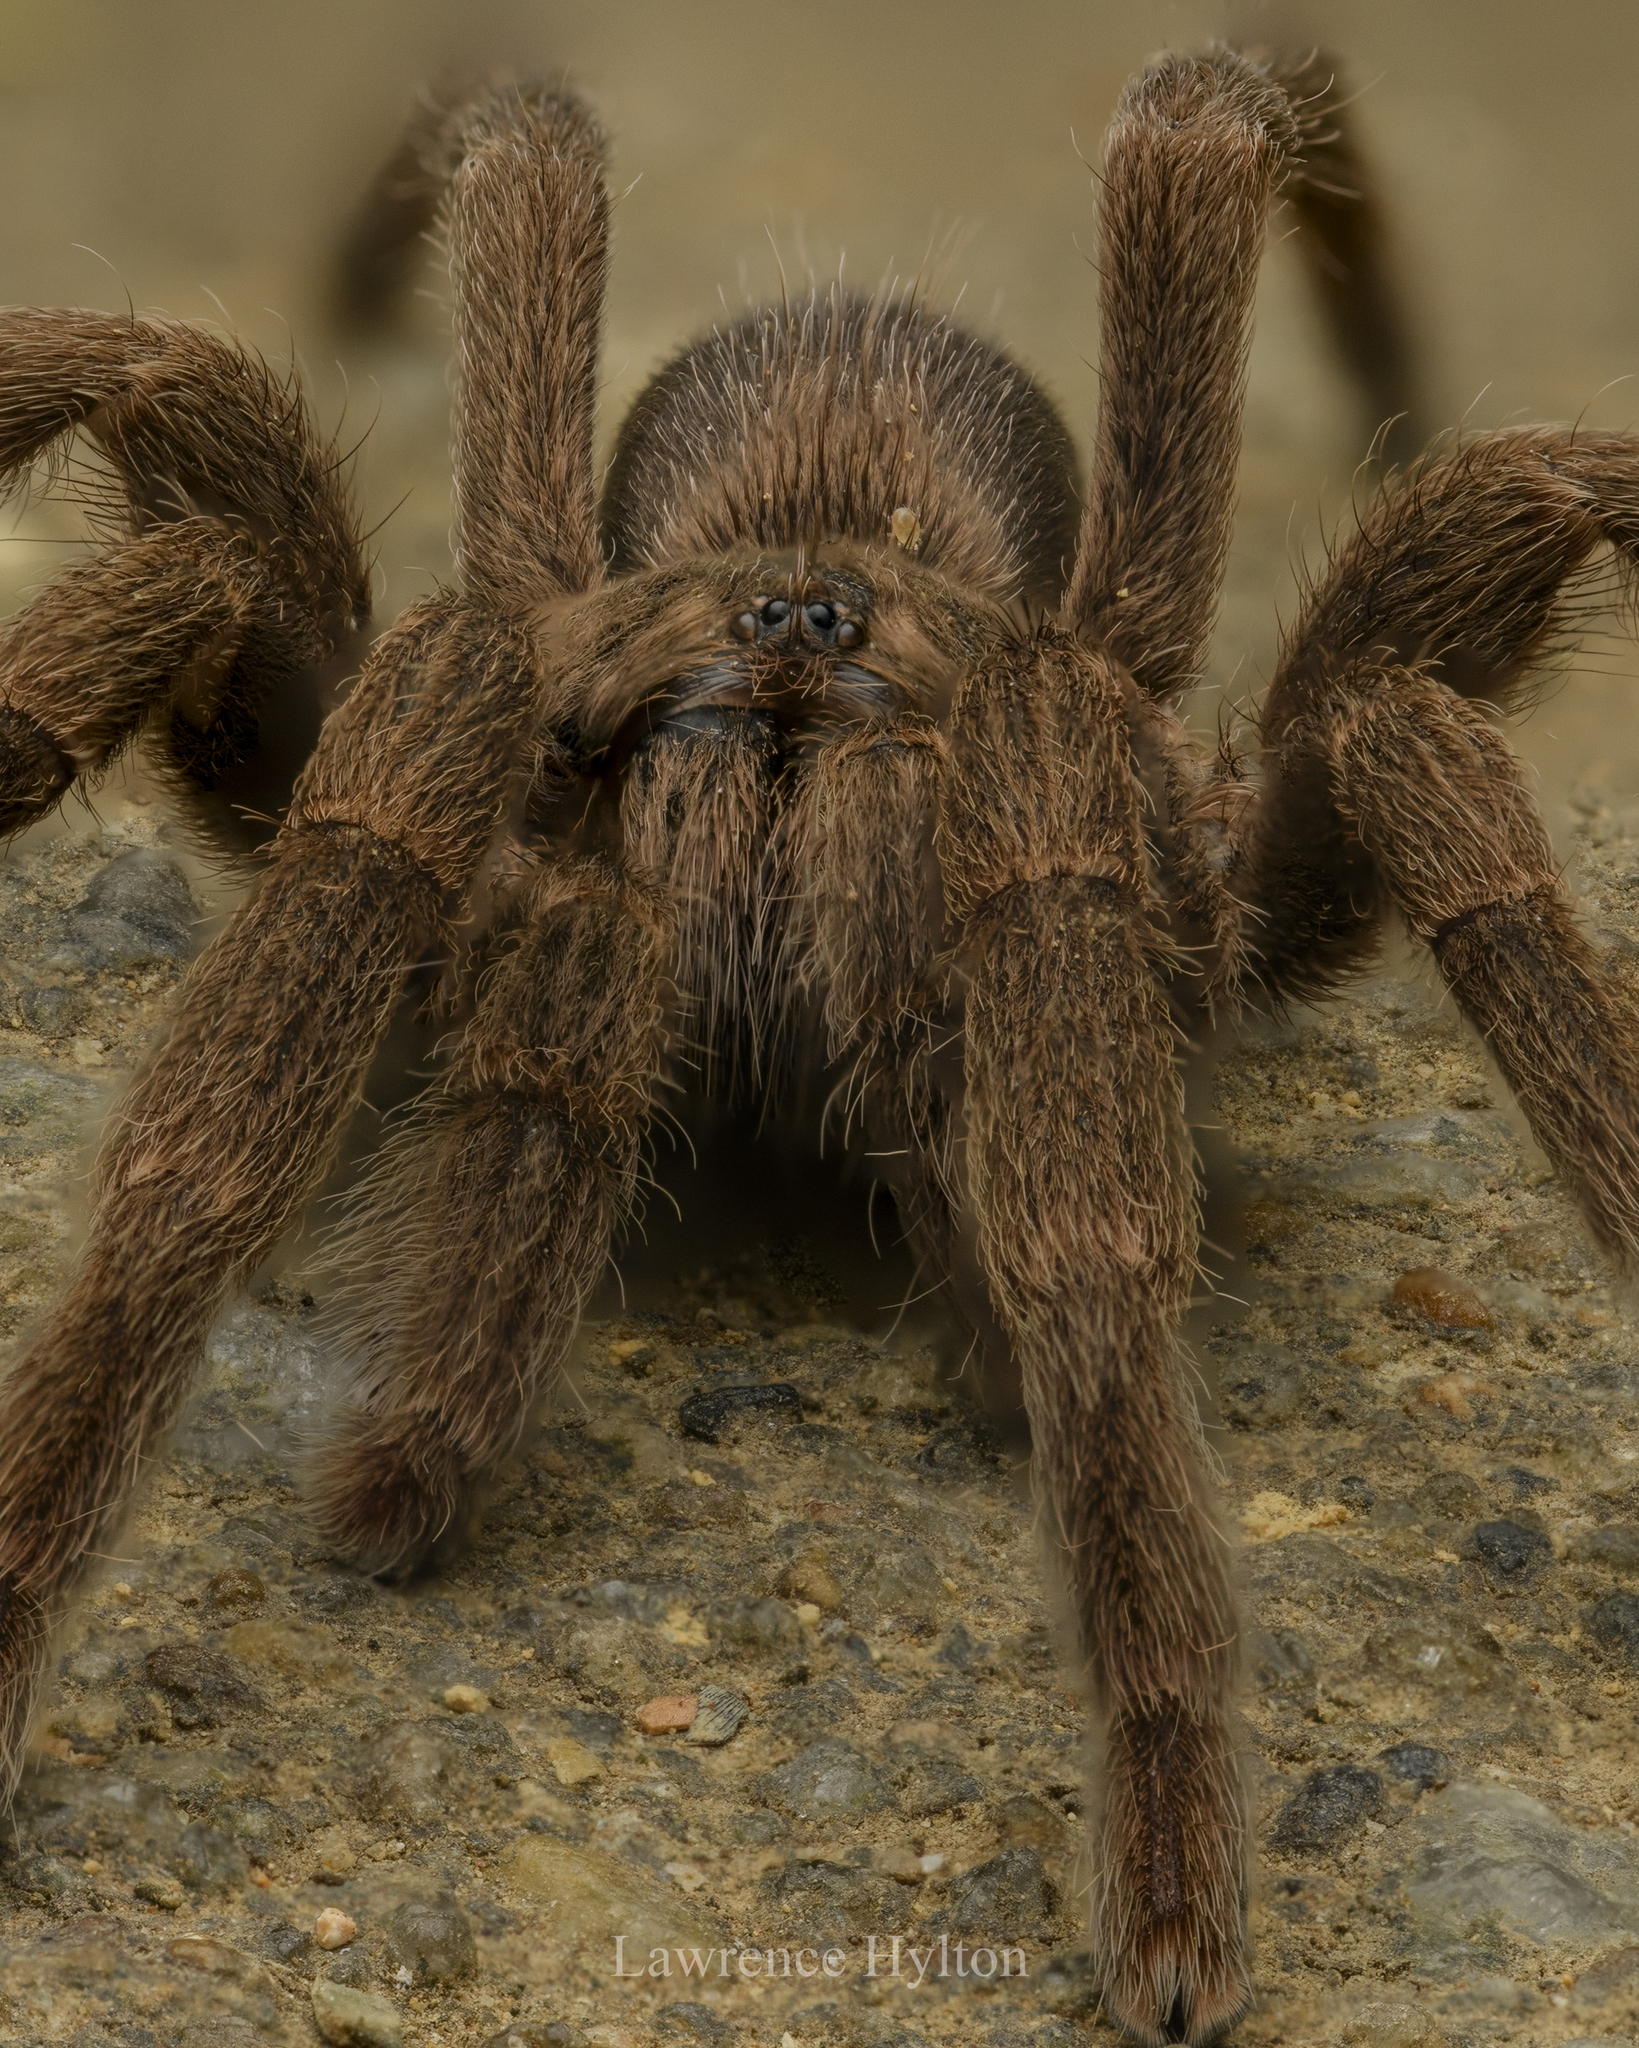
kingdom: Animalia
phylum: Arthropoda
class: Arachnida
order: Araneae
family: Theraphosidae
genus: Phlogiellus
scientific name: Phlogiellus
